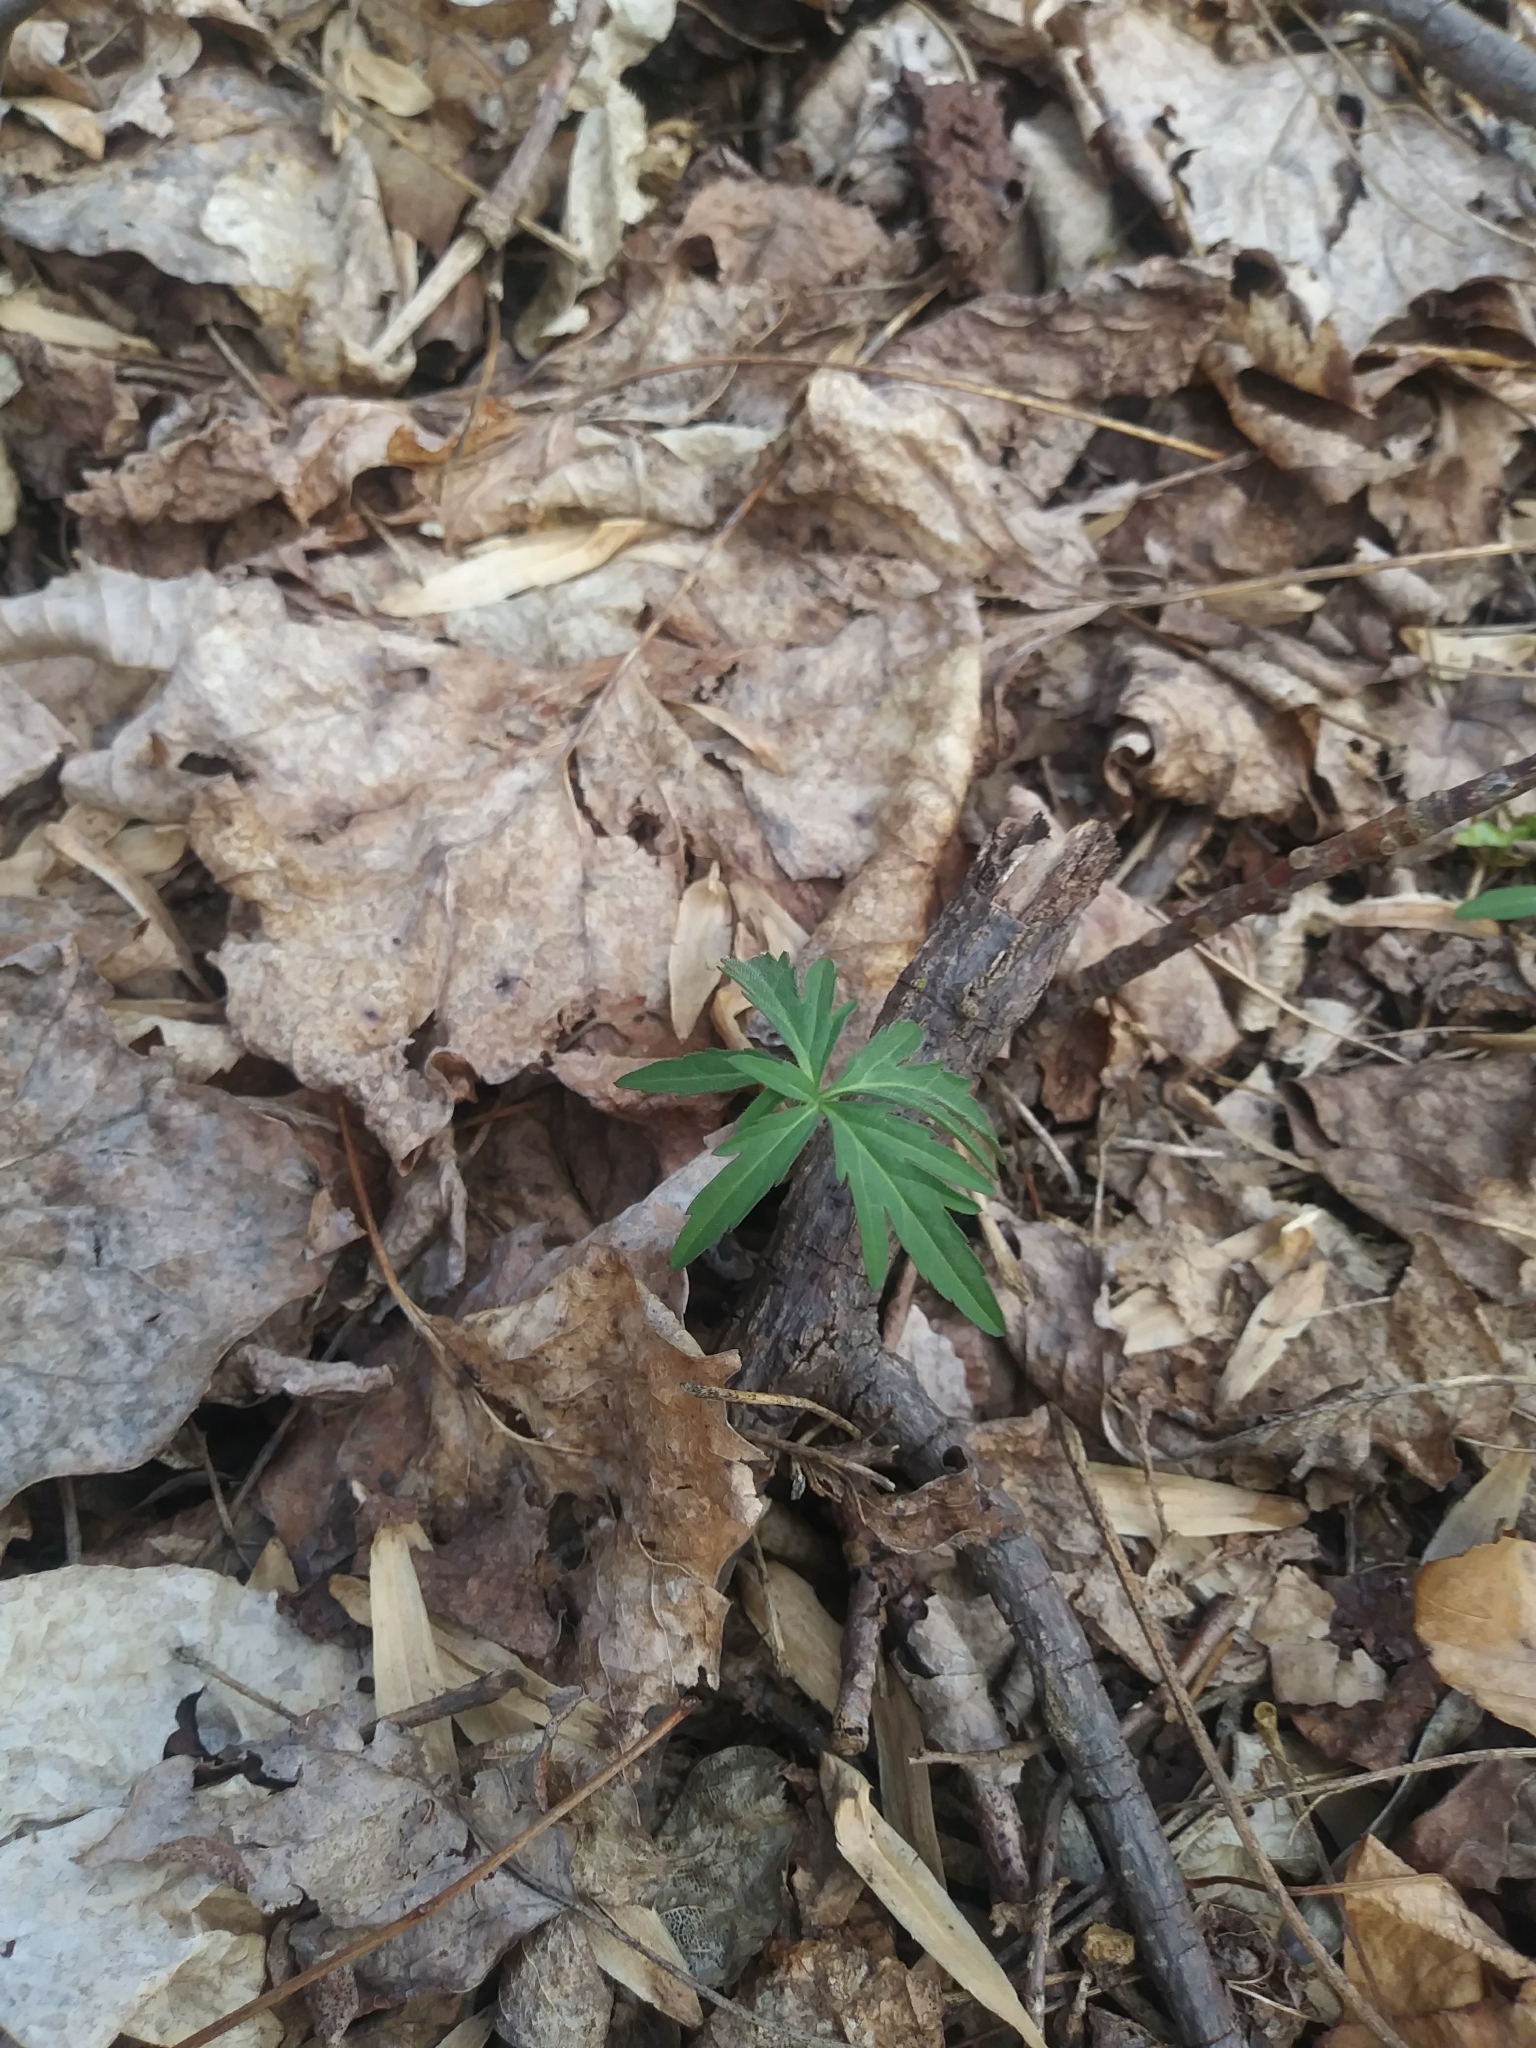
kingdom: Plantae
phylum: Tracheophyta
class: Magnoliopsida
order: Brassicales
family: Brassicaceae
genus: Cardamine
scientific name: Cardamine concatenata
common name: Cut-leaf toothcup
